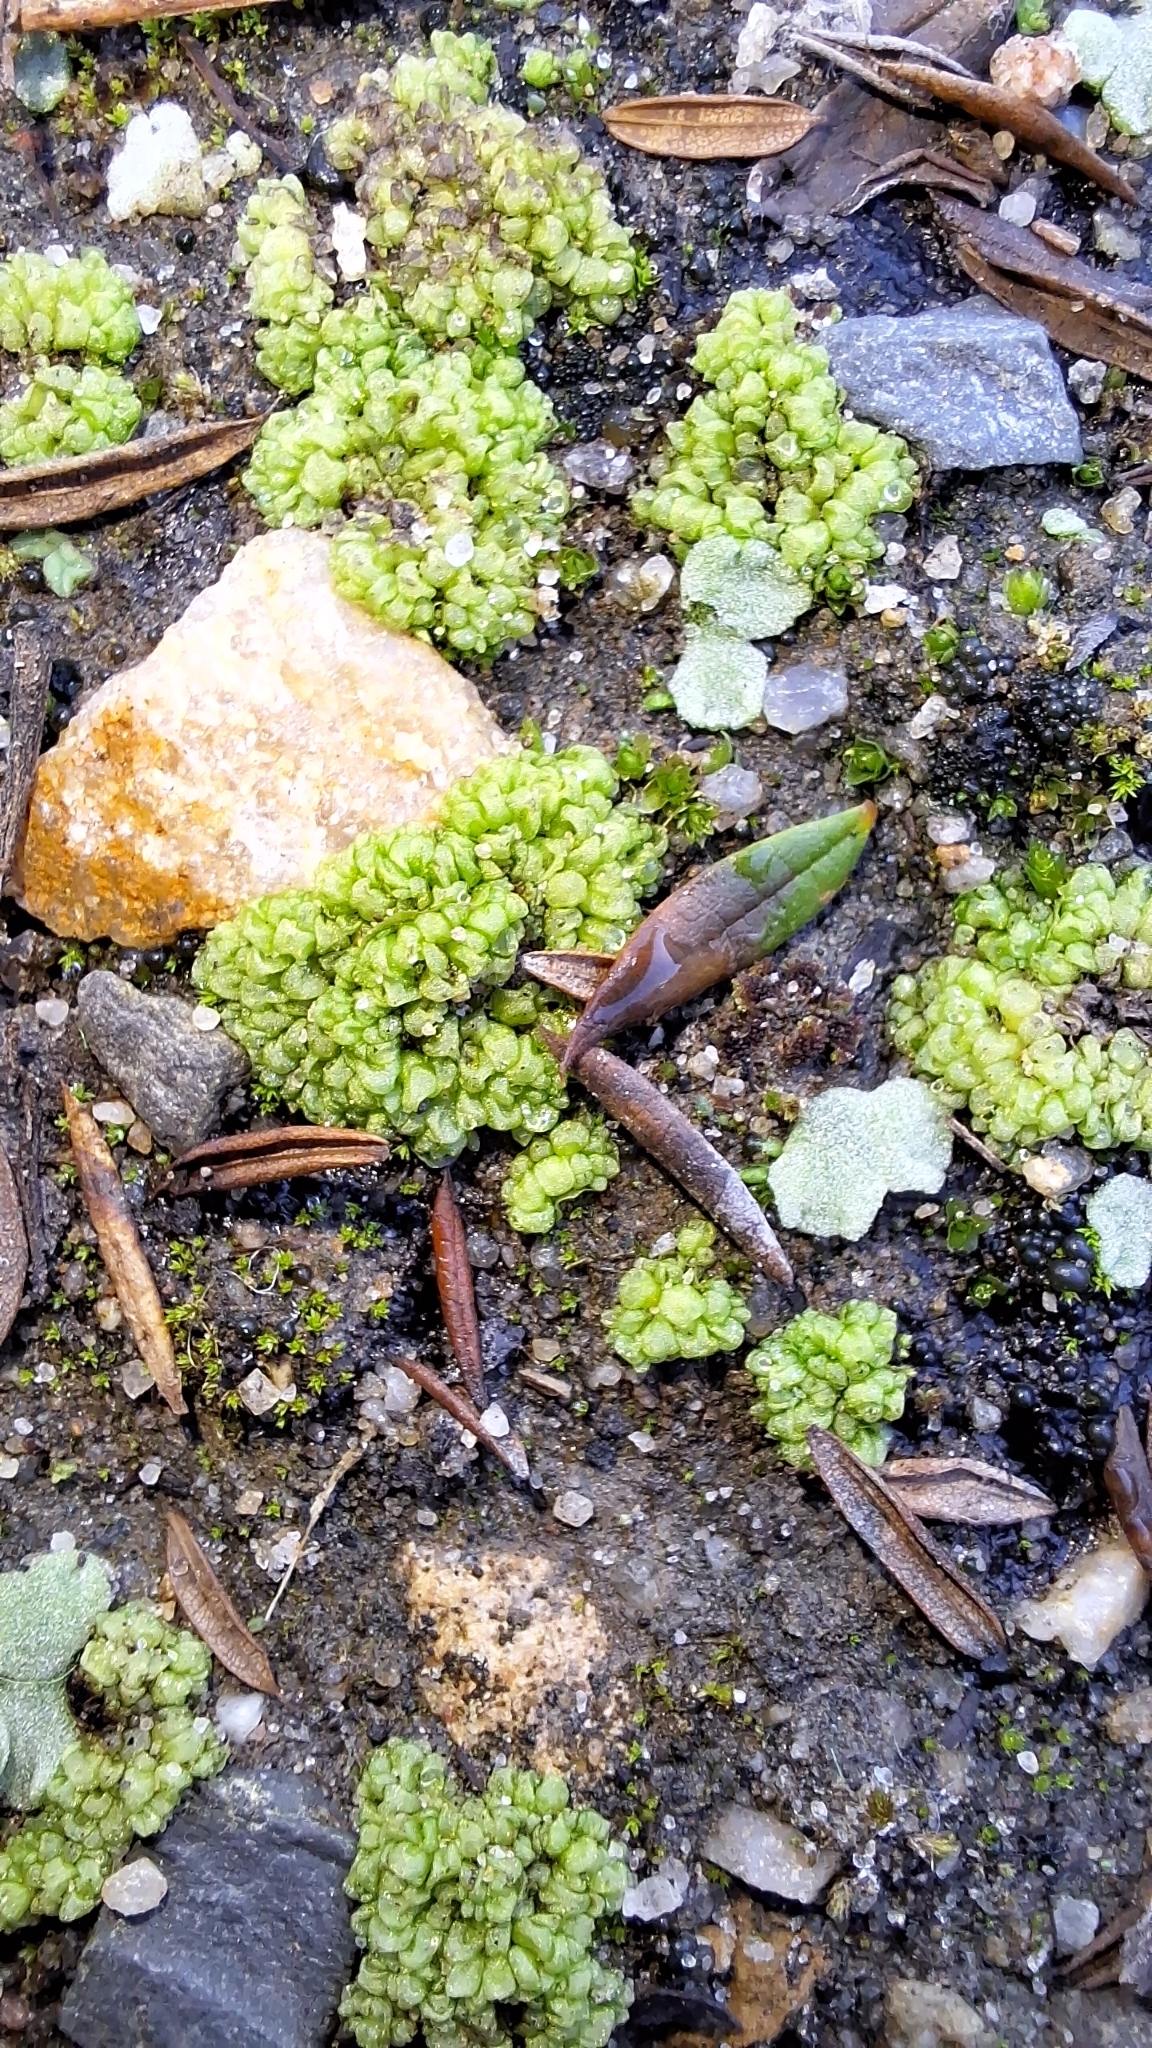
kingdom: Plantae
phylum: Marchantiophyta
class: Marchantiopsida
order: Sphaerocarpales
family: Sphaerocarpaceae
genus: Sphaerocarpos
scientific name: Sphaerocarpos texanus
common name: Texas balloonwort
